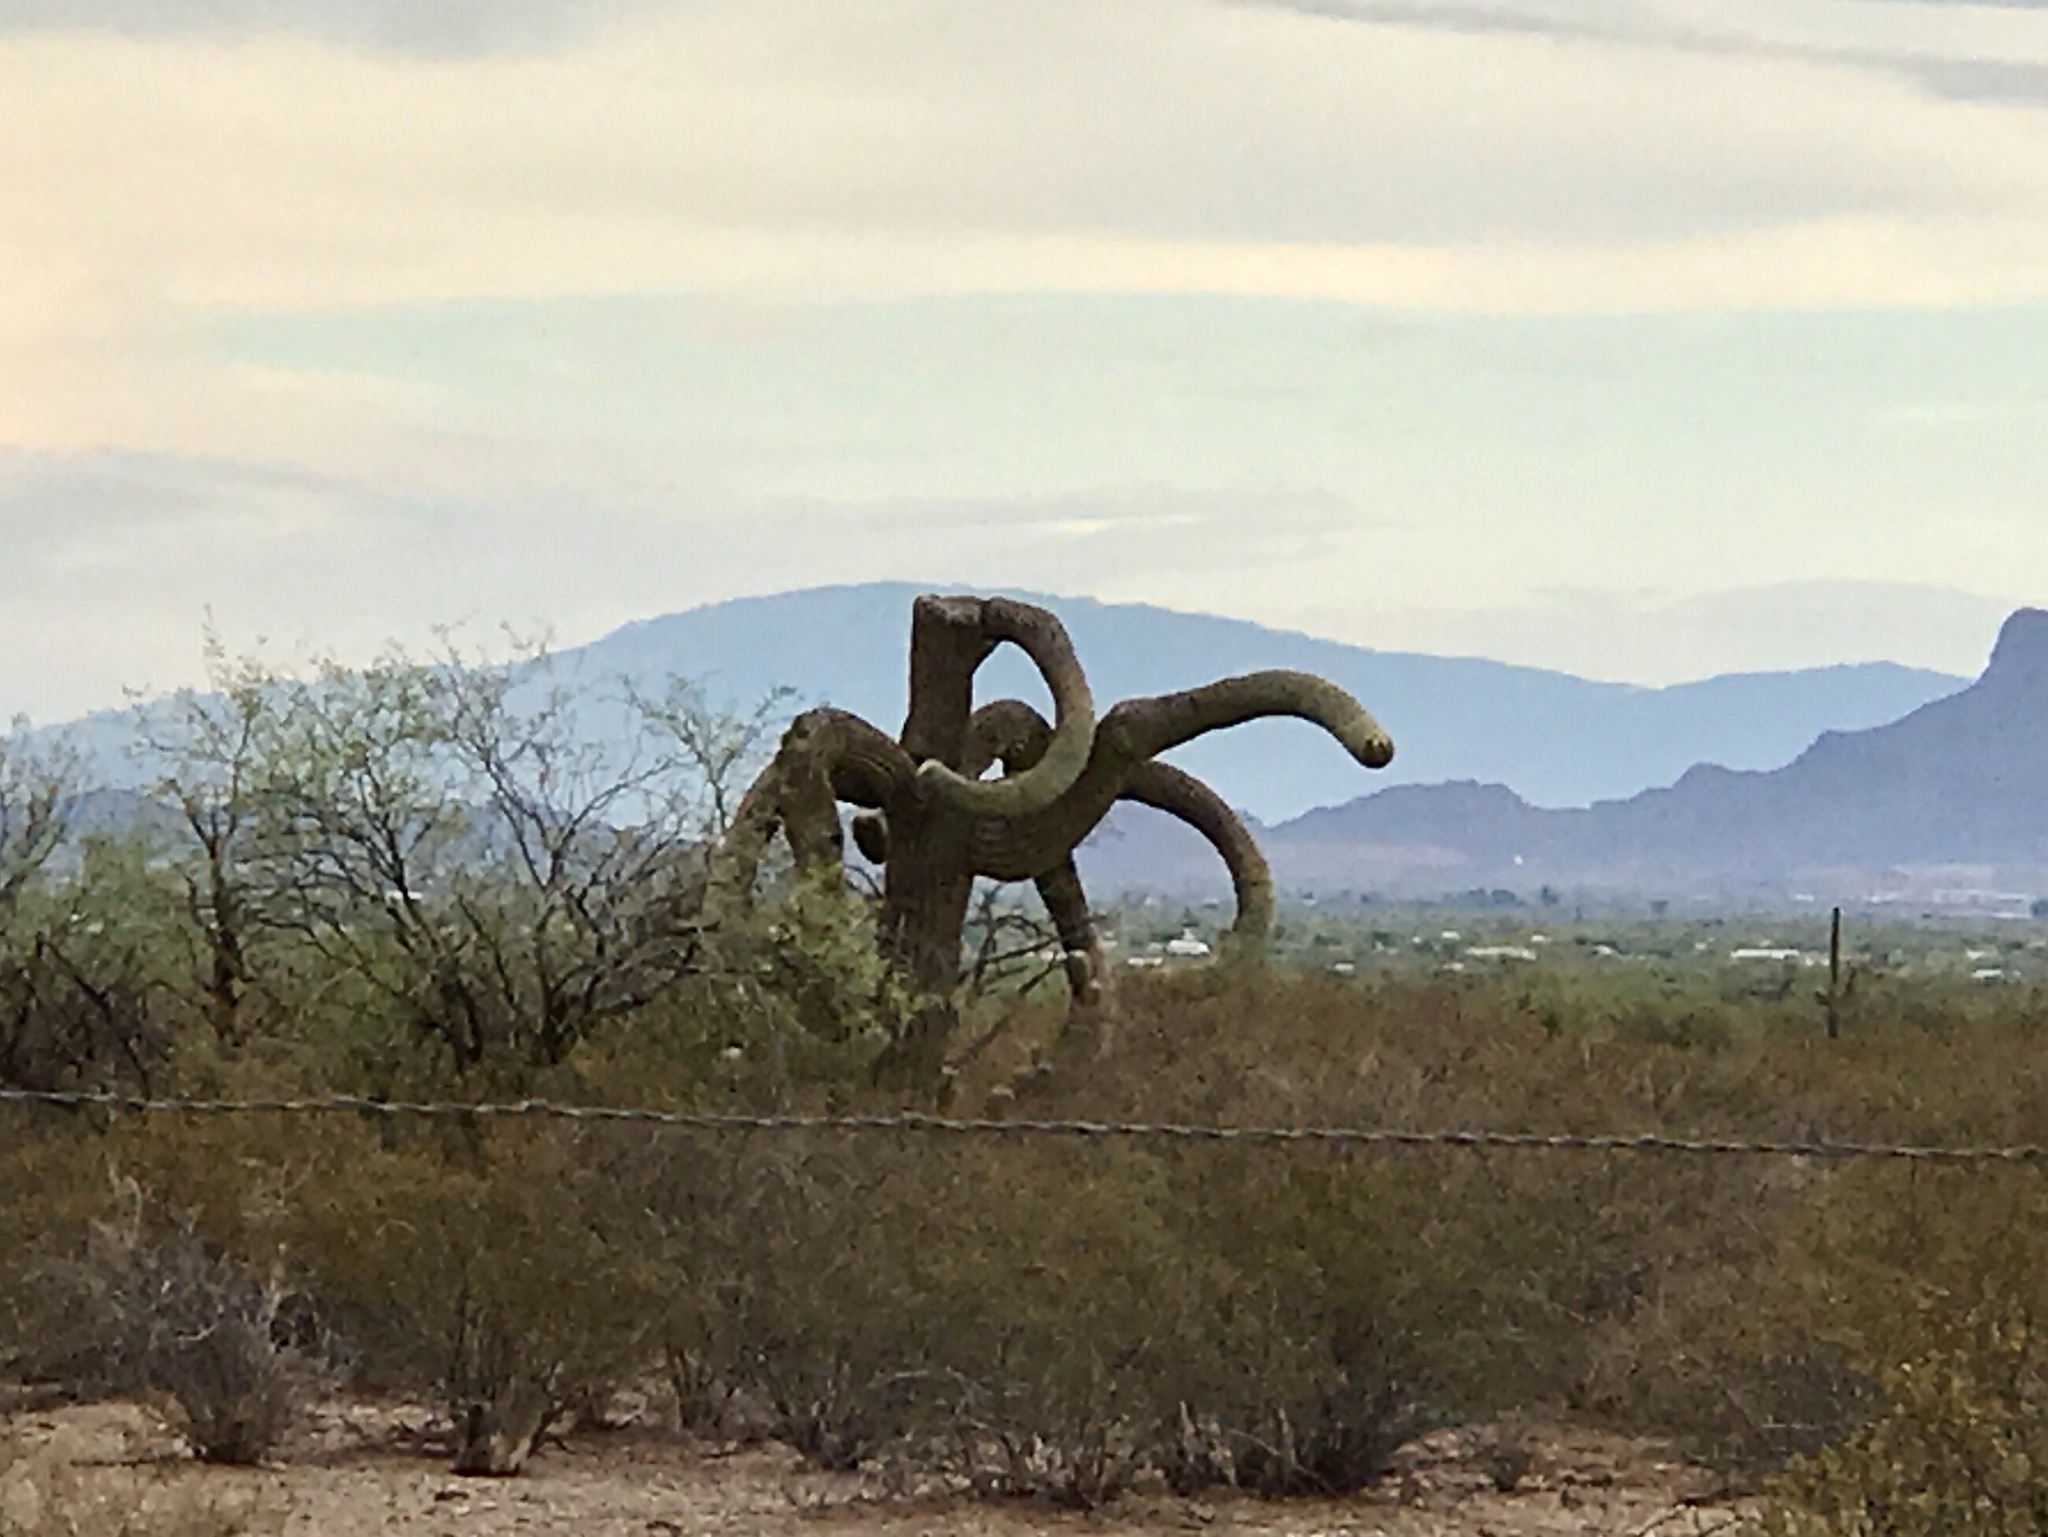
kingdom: Plantae
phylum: Tracheophyta
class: Magnoliopsida
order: Caryophyllales
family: Cactaceae
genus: Carnegiea
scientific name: Carnegiea gigantea
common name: Saguaro
